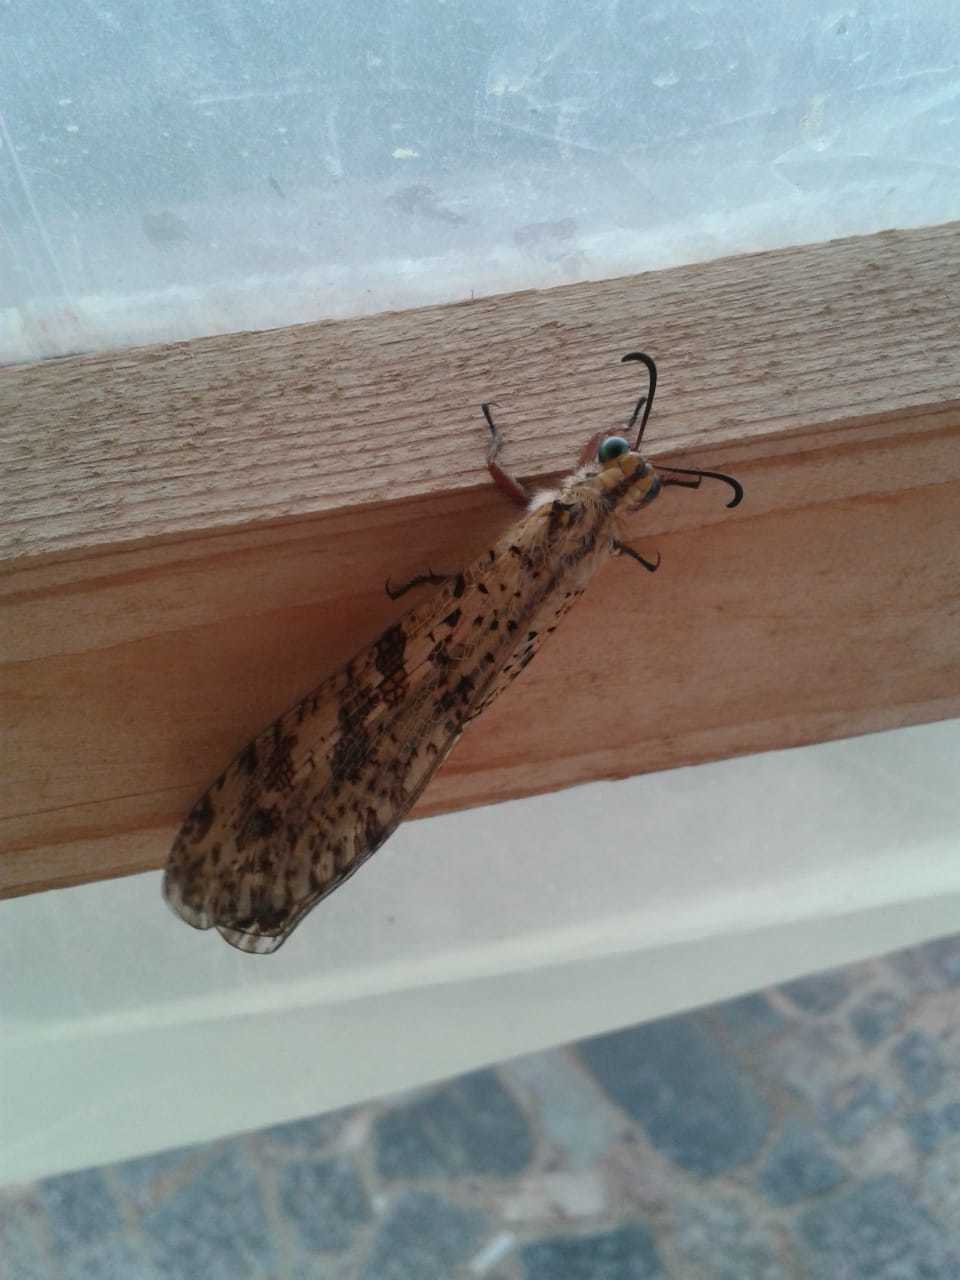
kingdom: Animalia
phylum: Arthropoda
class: Insecta
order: Neuroptera
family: Myrmeleontidae
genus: Palpares
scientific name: Palpares libelluloides
